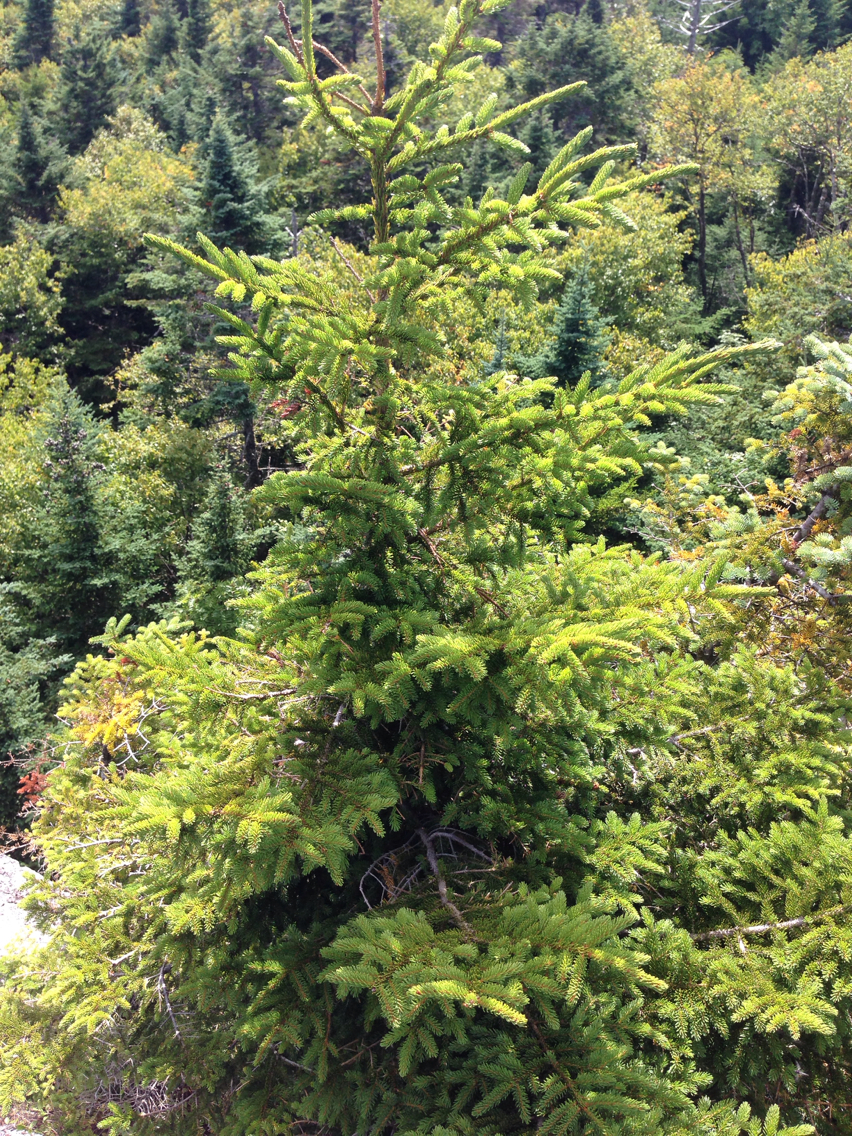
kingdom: Plantae
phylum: Tracheophyta
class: Pinopsida
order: Pinales
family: Pinaceae
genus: Picea
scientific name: Picea rubens
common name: Red spruce
